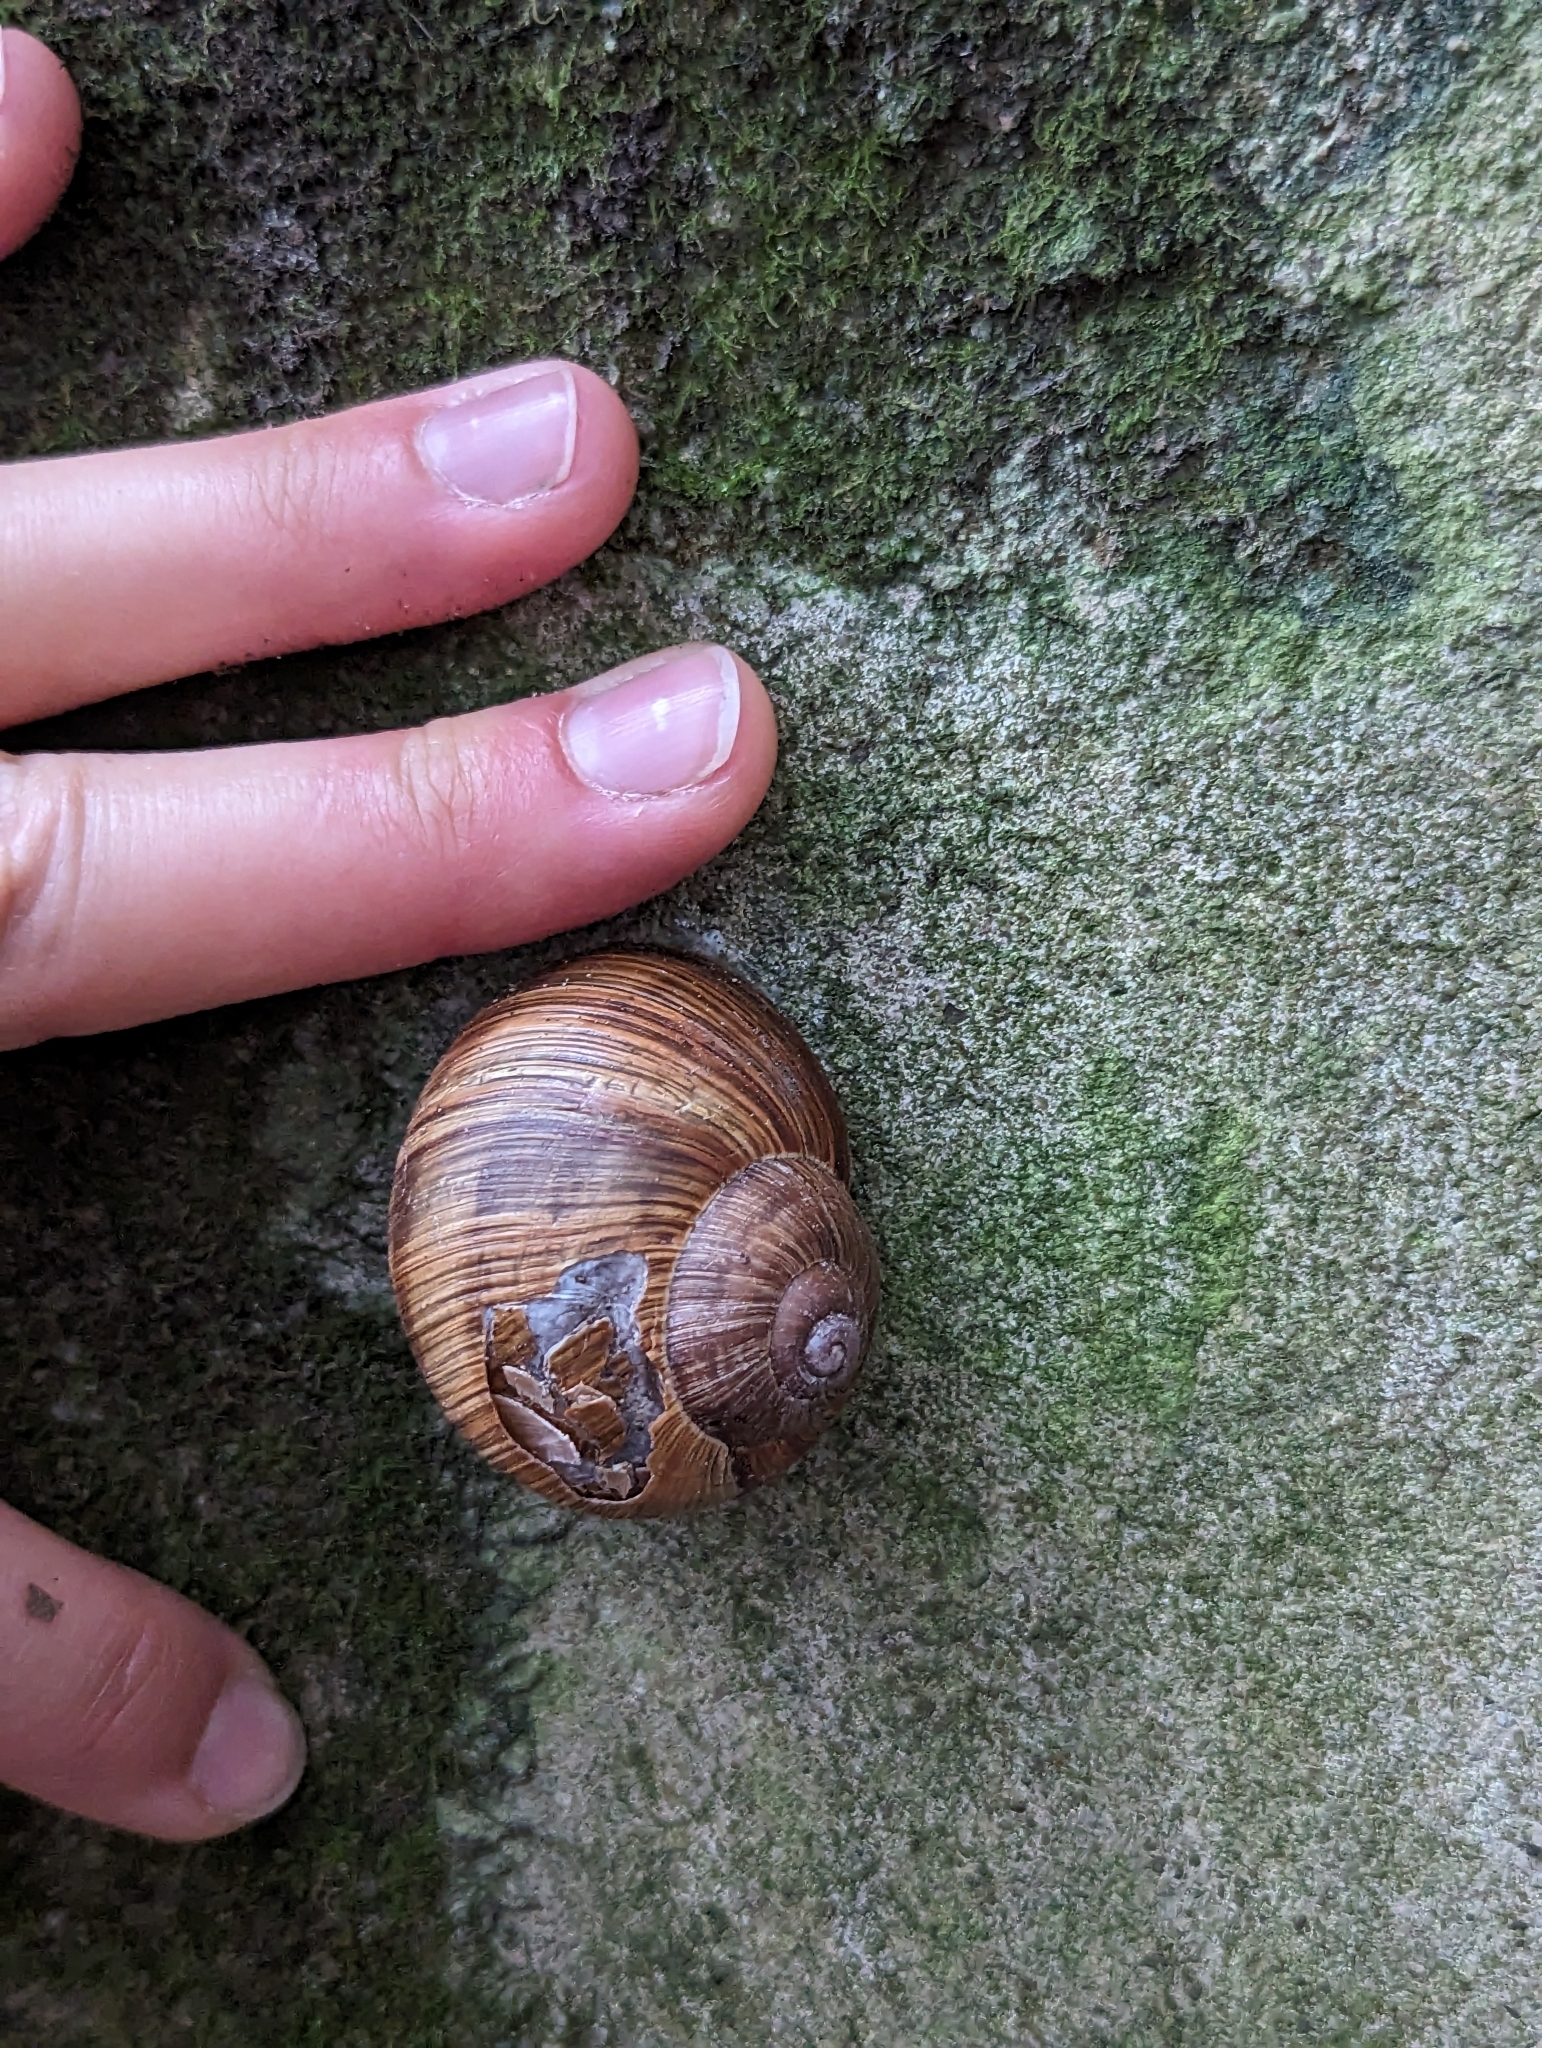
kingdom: Animalia
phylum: Mollusca
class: Gastropoda
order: Stylommatophora
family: Helicidae
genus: Helix
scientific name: Helix pomatia
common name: Roman snail
